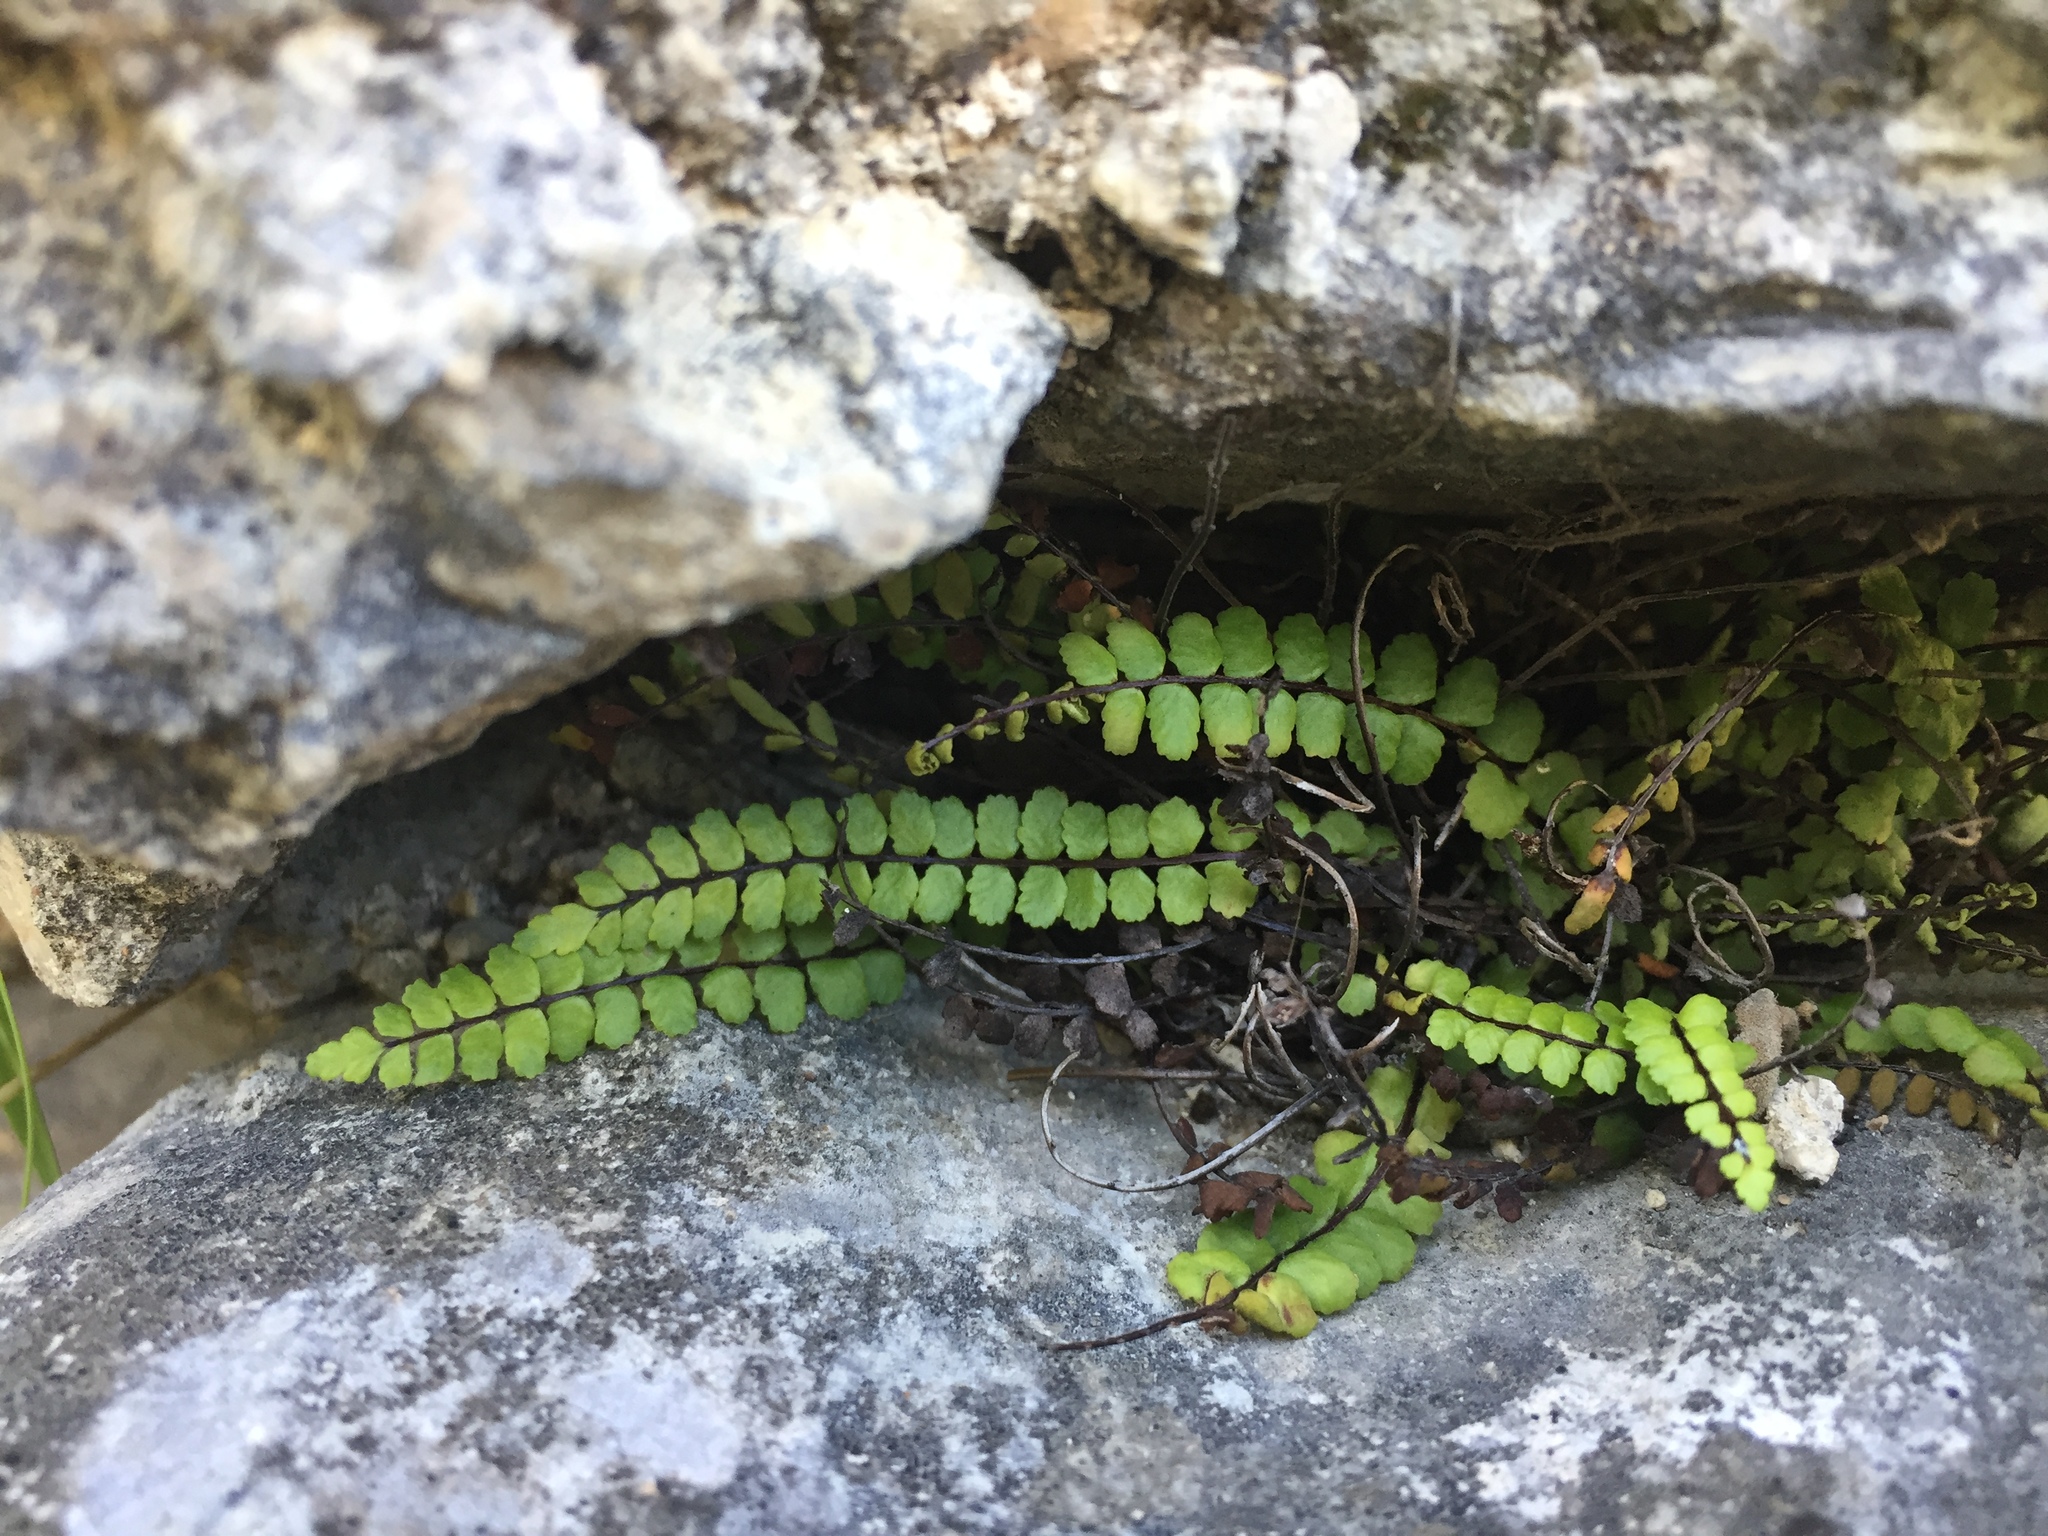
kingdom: Plantae
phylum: Tracheophyta
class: Polypodiopsida
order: Polypodiales
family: Aspleniaceae
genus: Asplenium
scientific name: Asplenium trichomanes
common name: Maidenhair spleenwort
